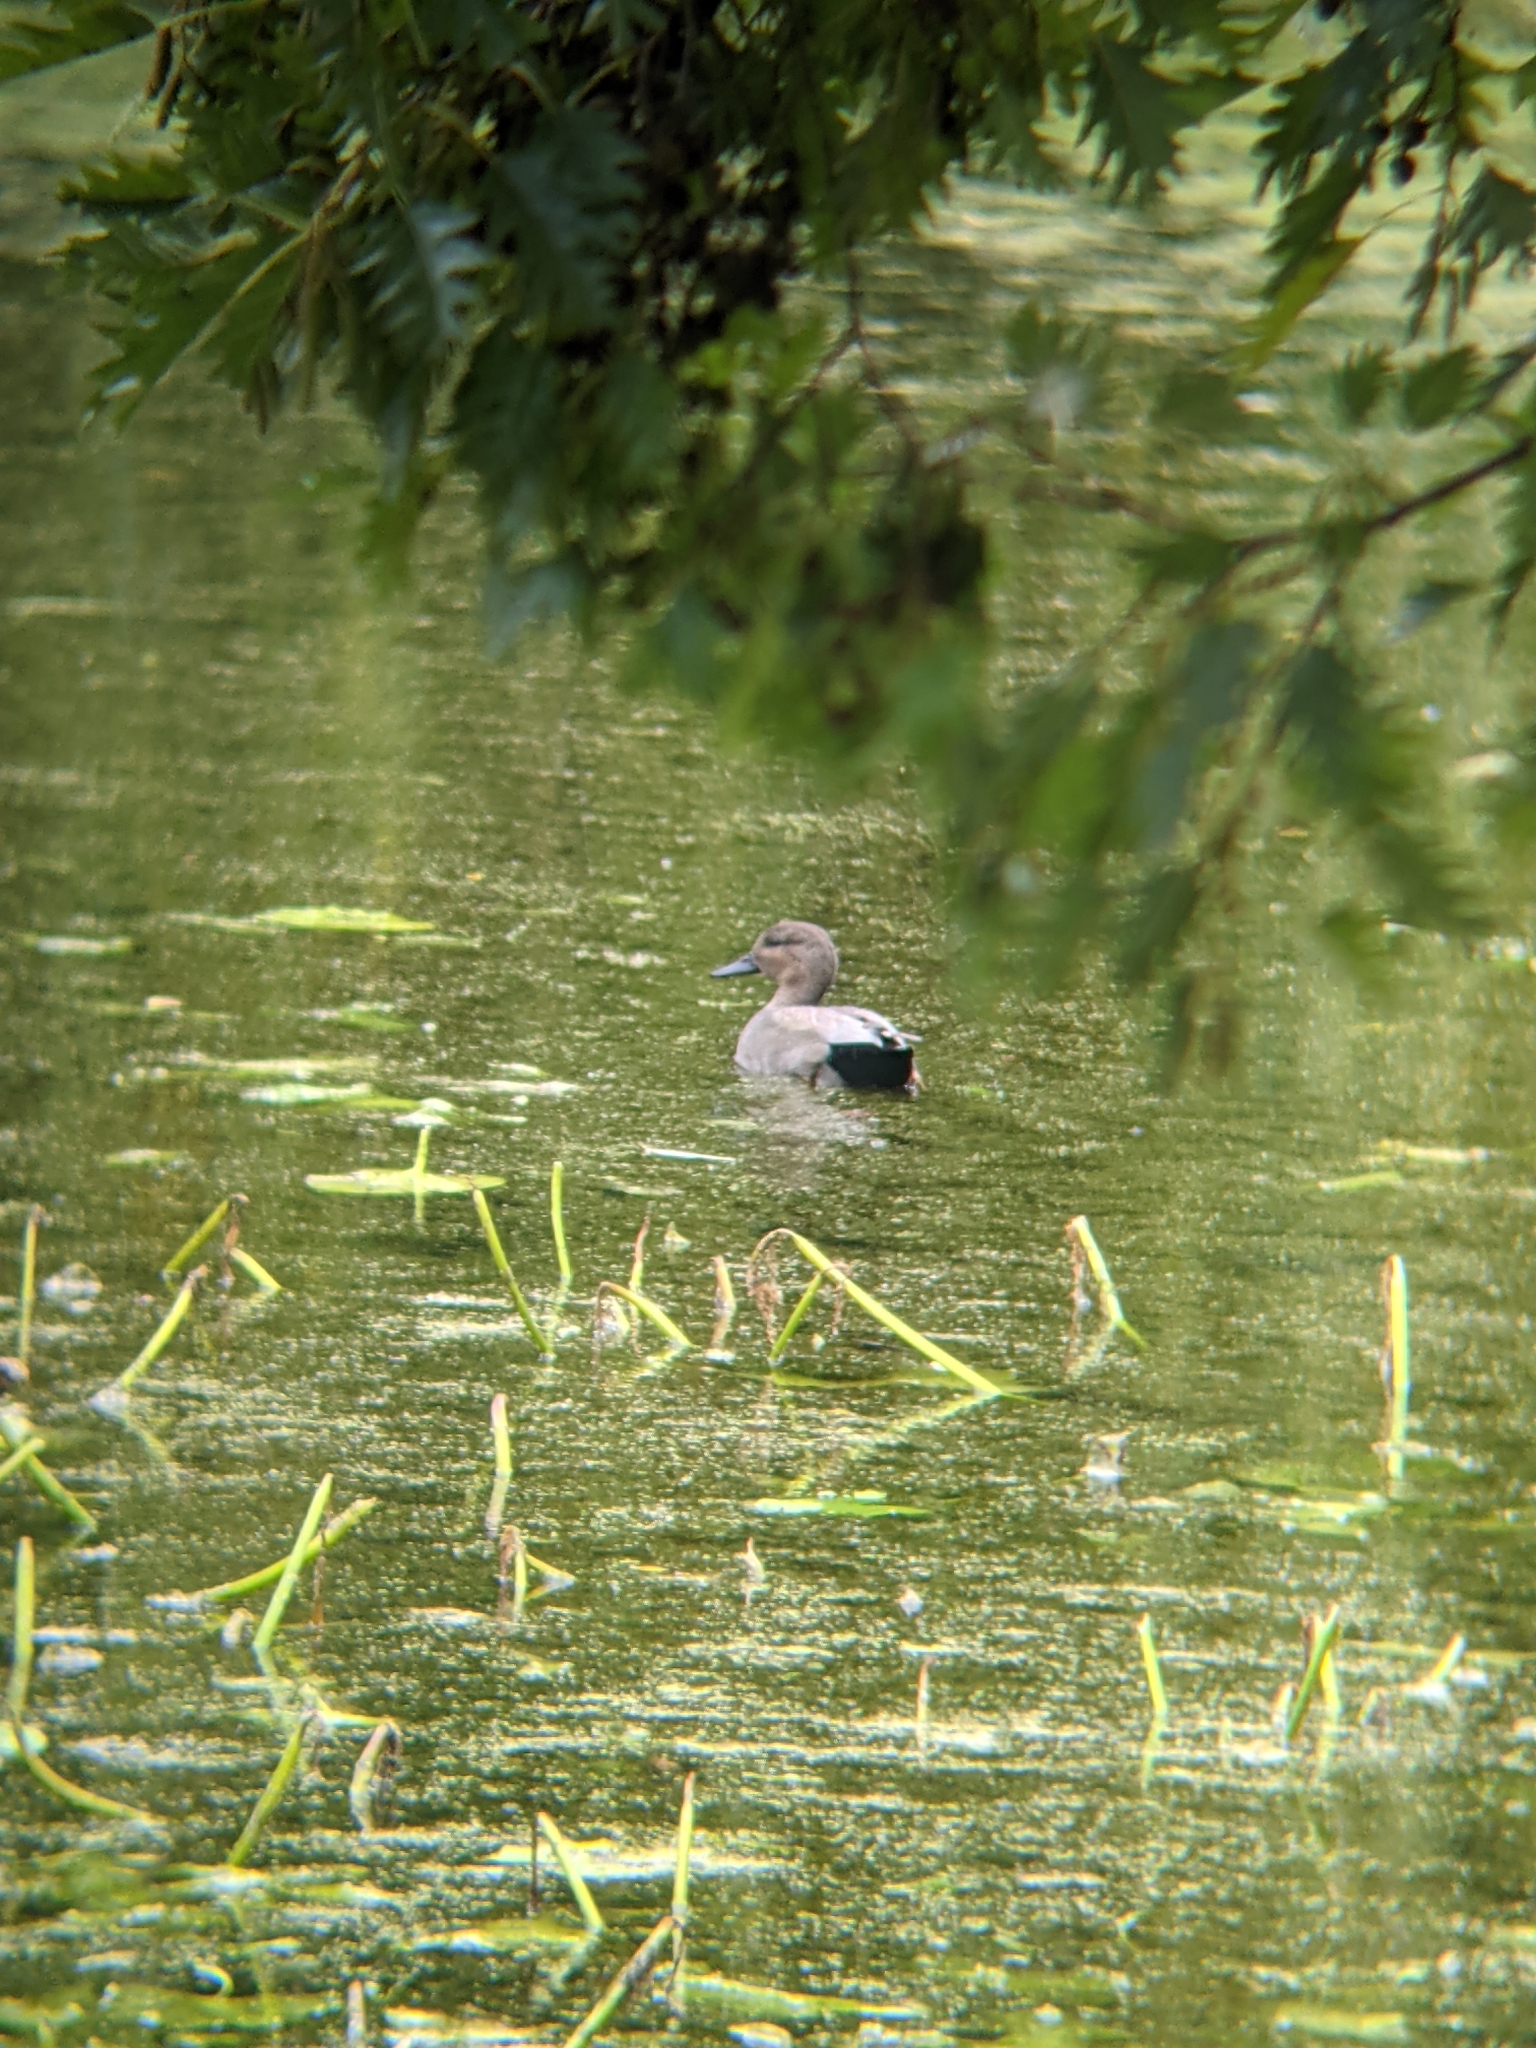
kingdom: Animalia
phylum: Chordata
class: Aves
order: Anseriformes
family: Anatidae
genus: Mareca
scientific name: Mareca strepera
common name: Gadwall
